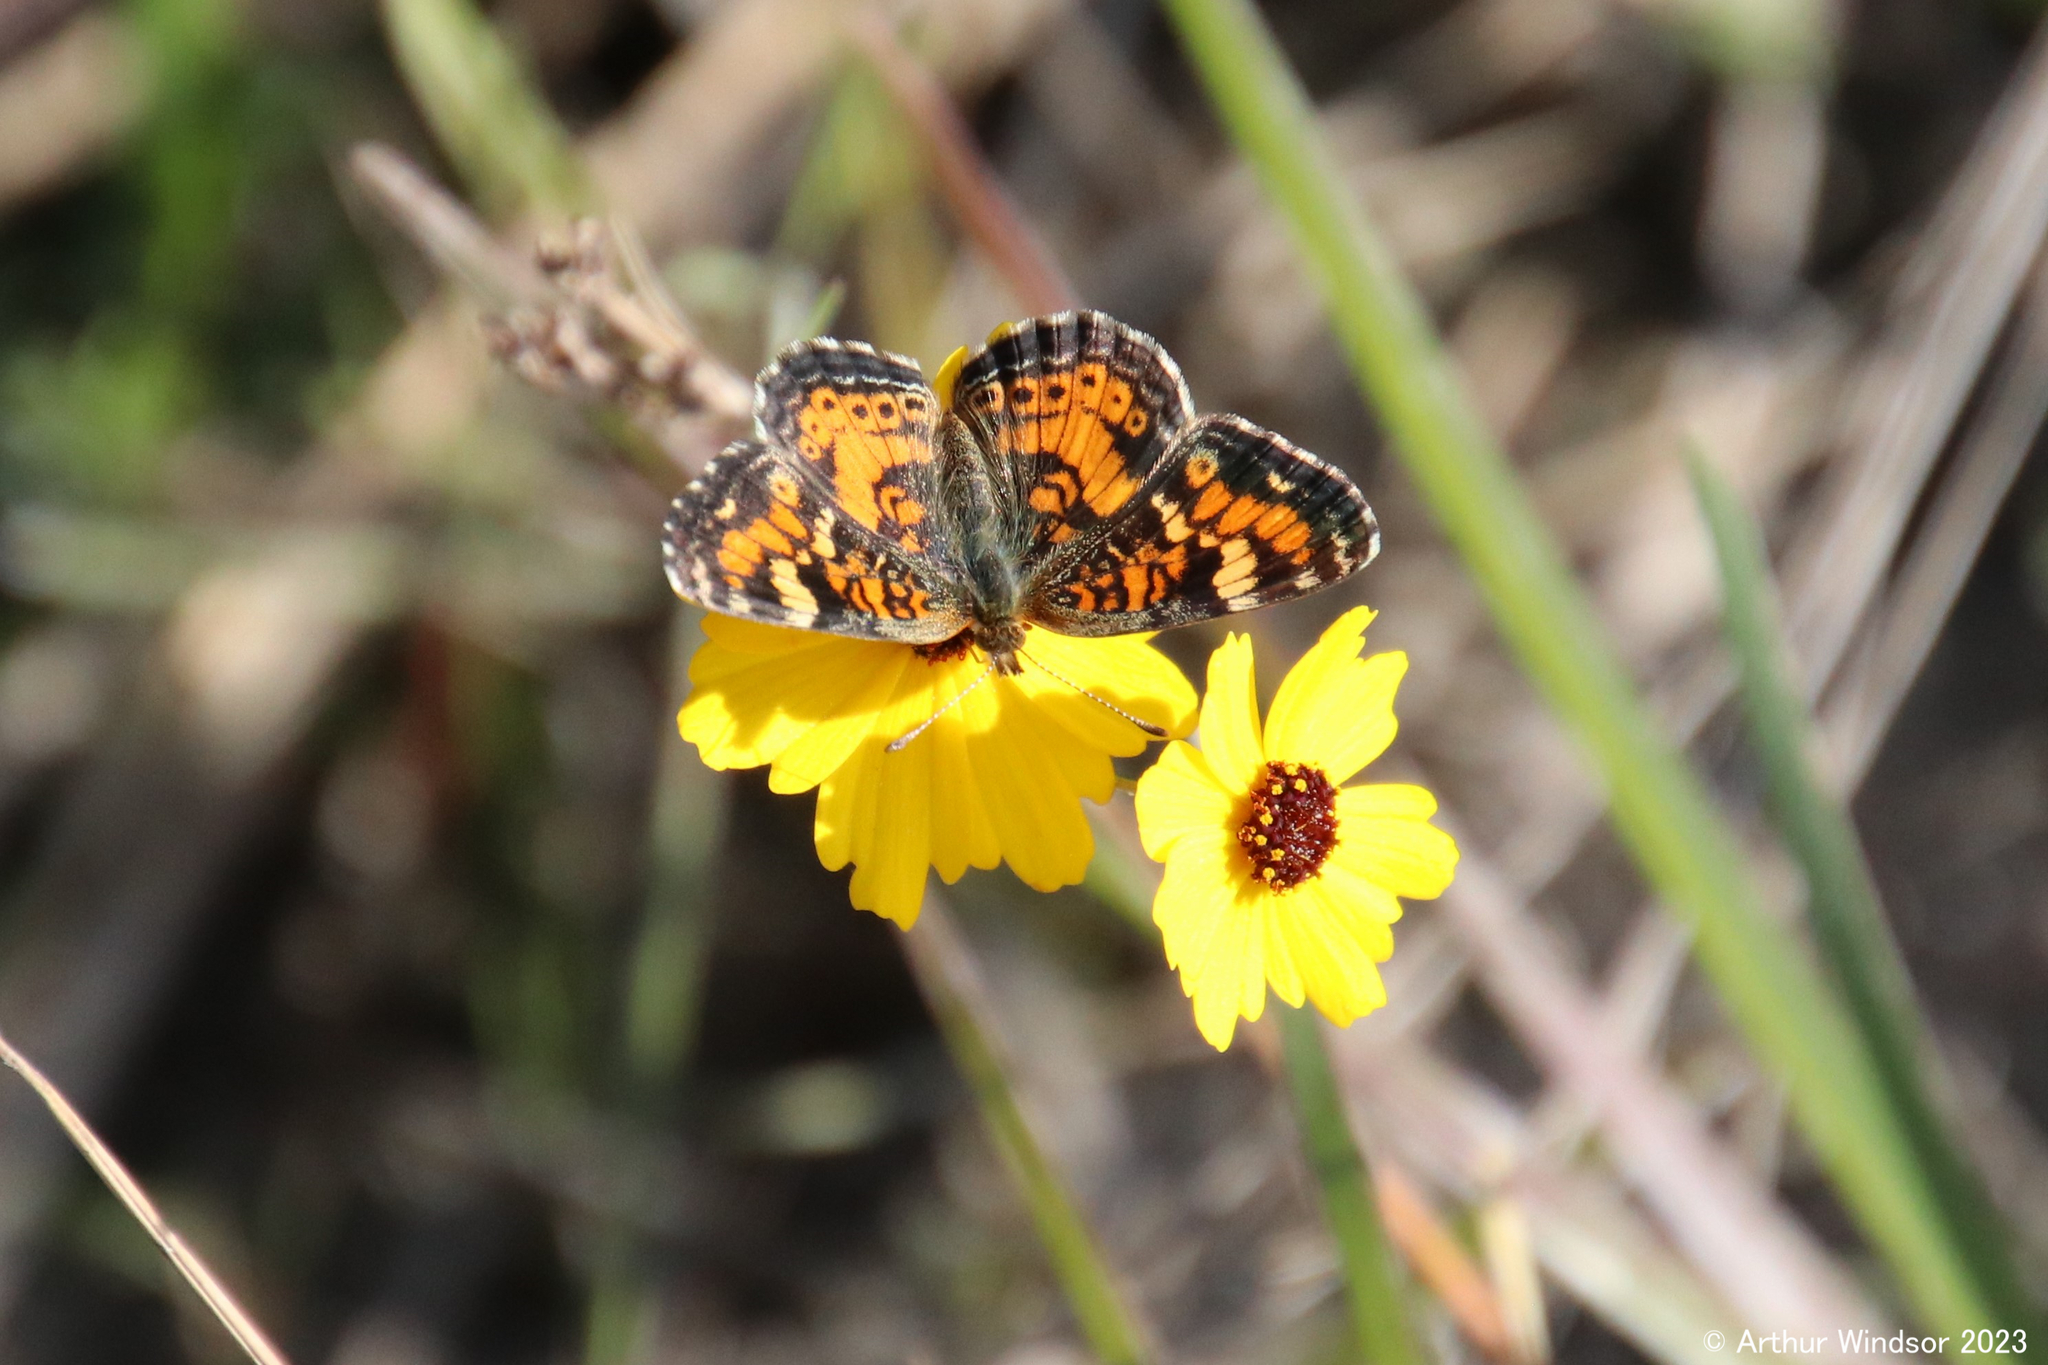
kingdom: Animalia
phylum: Arthropoda
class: Insecta
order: Lepidoptera
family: Nymphalidae
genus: Phyciodes
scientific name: Phyciodes phaon
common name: Phaon crescent
